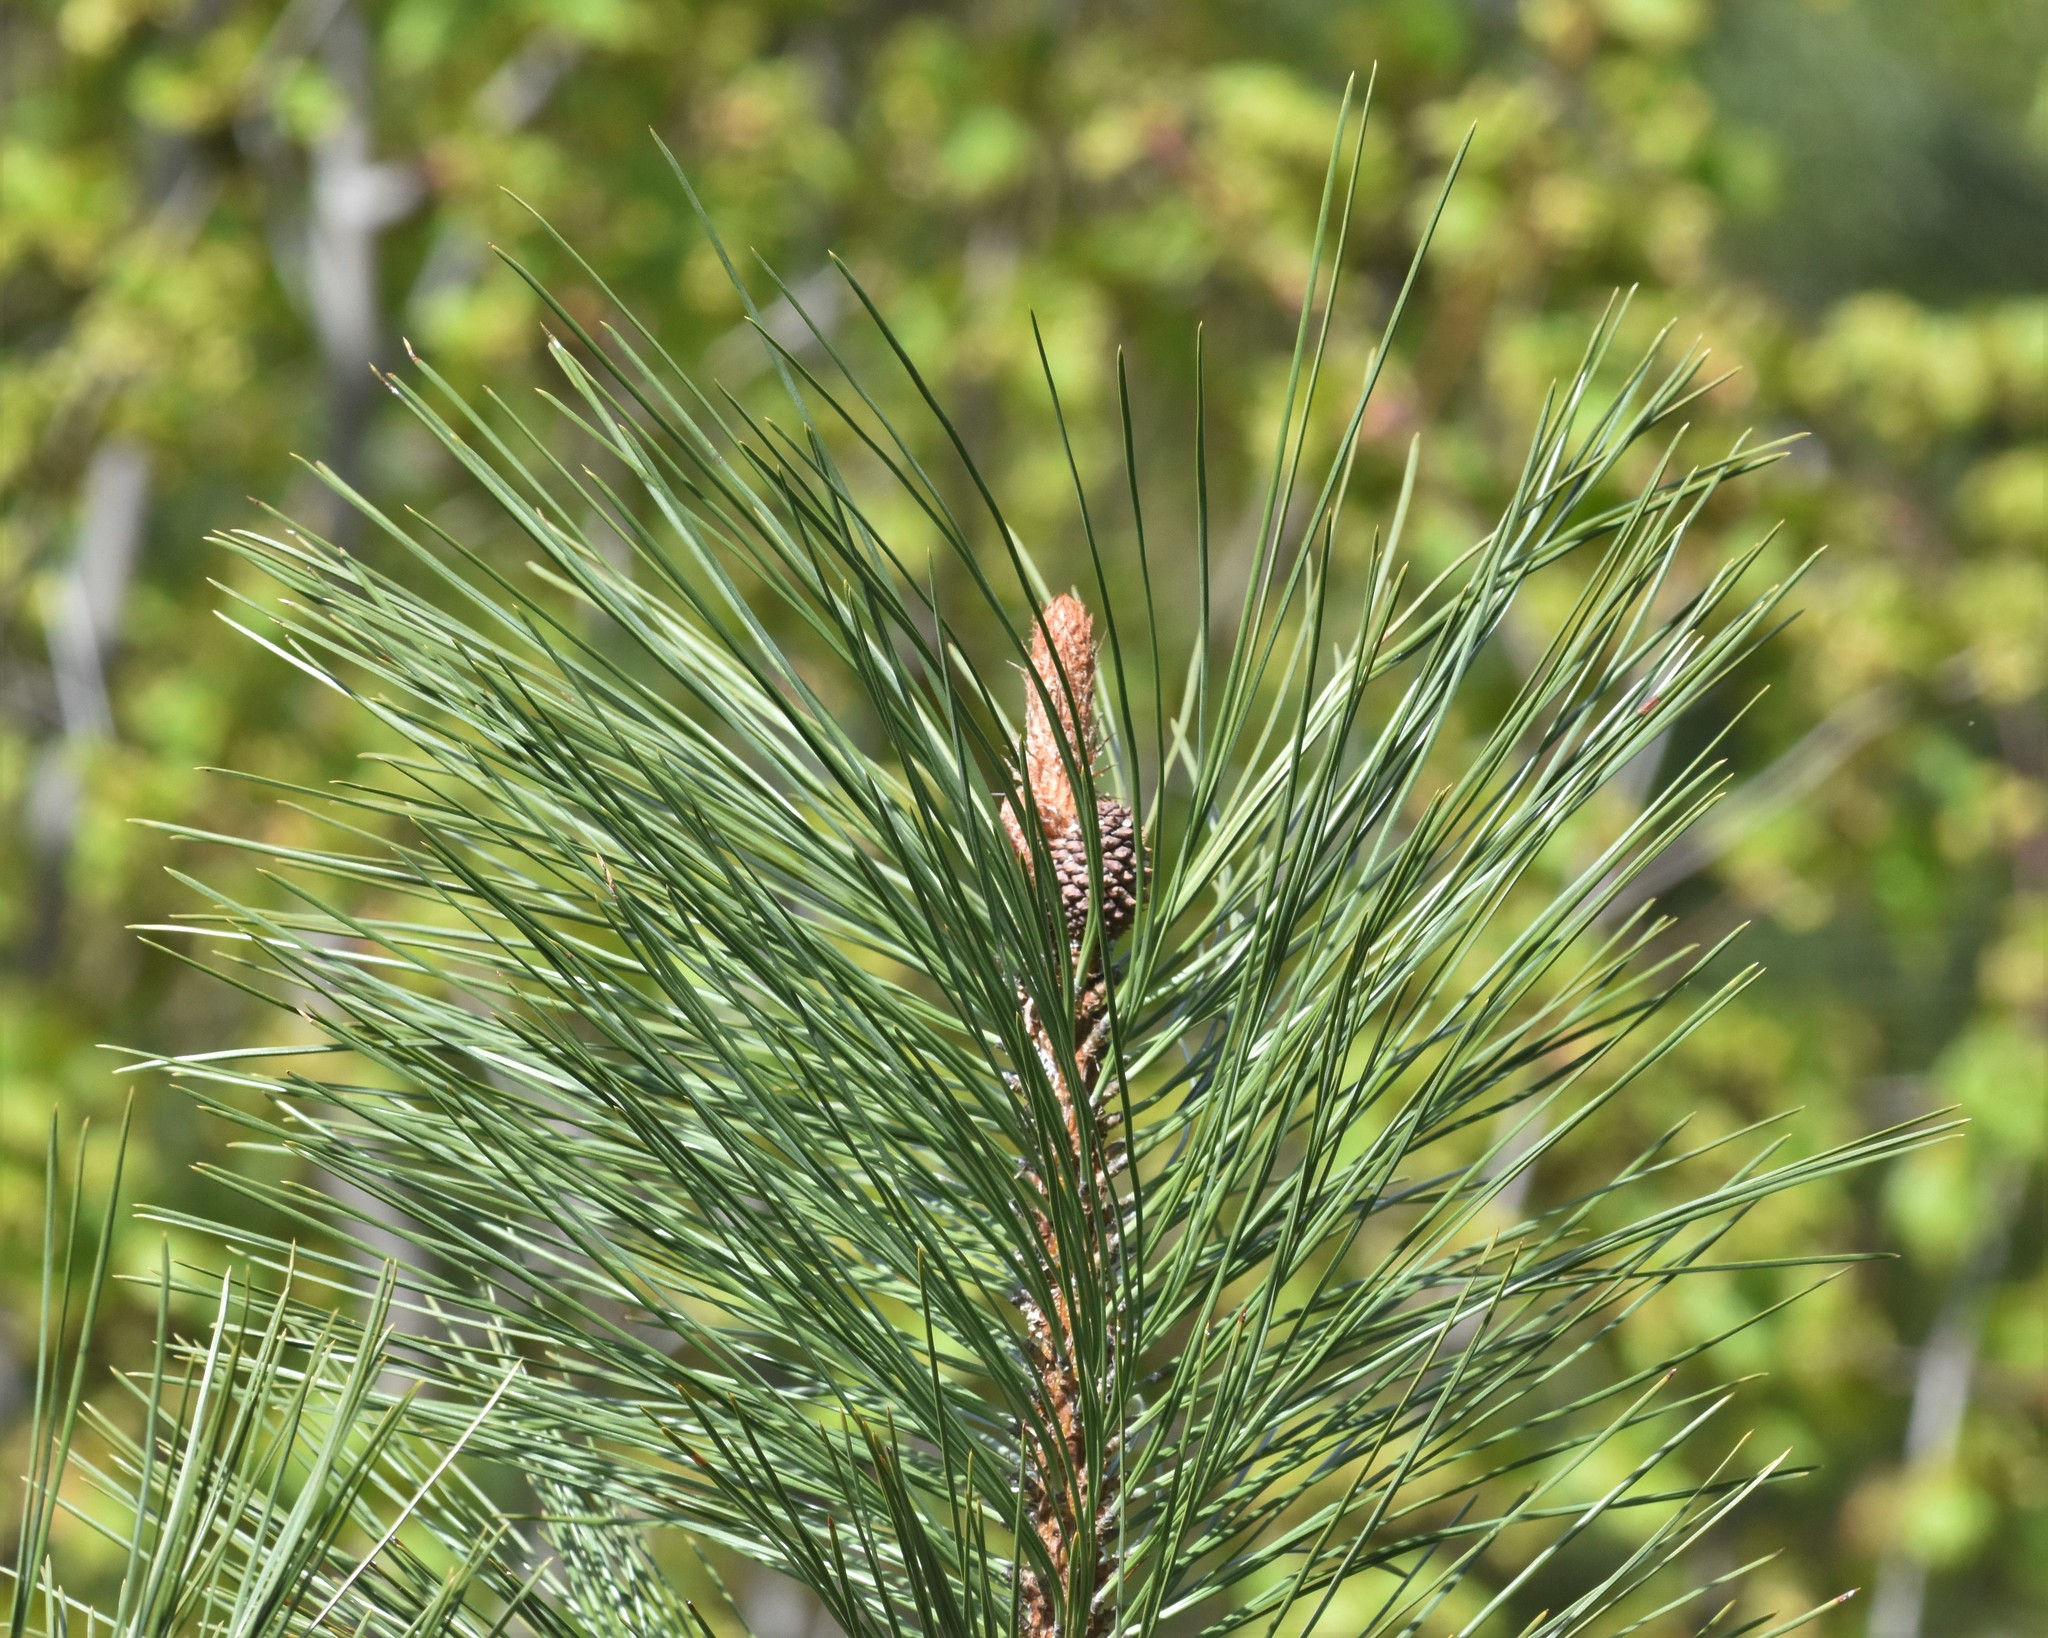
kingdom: Plantae
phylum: Tracheophyta
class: Pinopsida
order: Pinales
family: Pinaceae
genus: Pinus
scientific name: Pinus ponderosa
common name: Western yellow-pine
